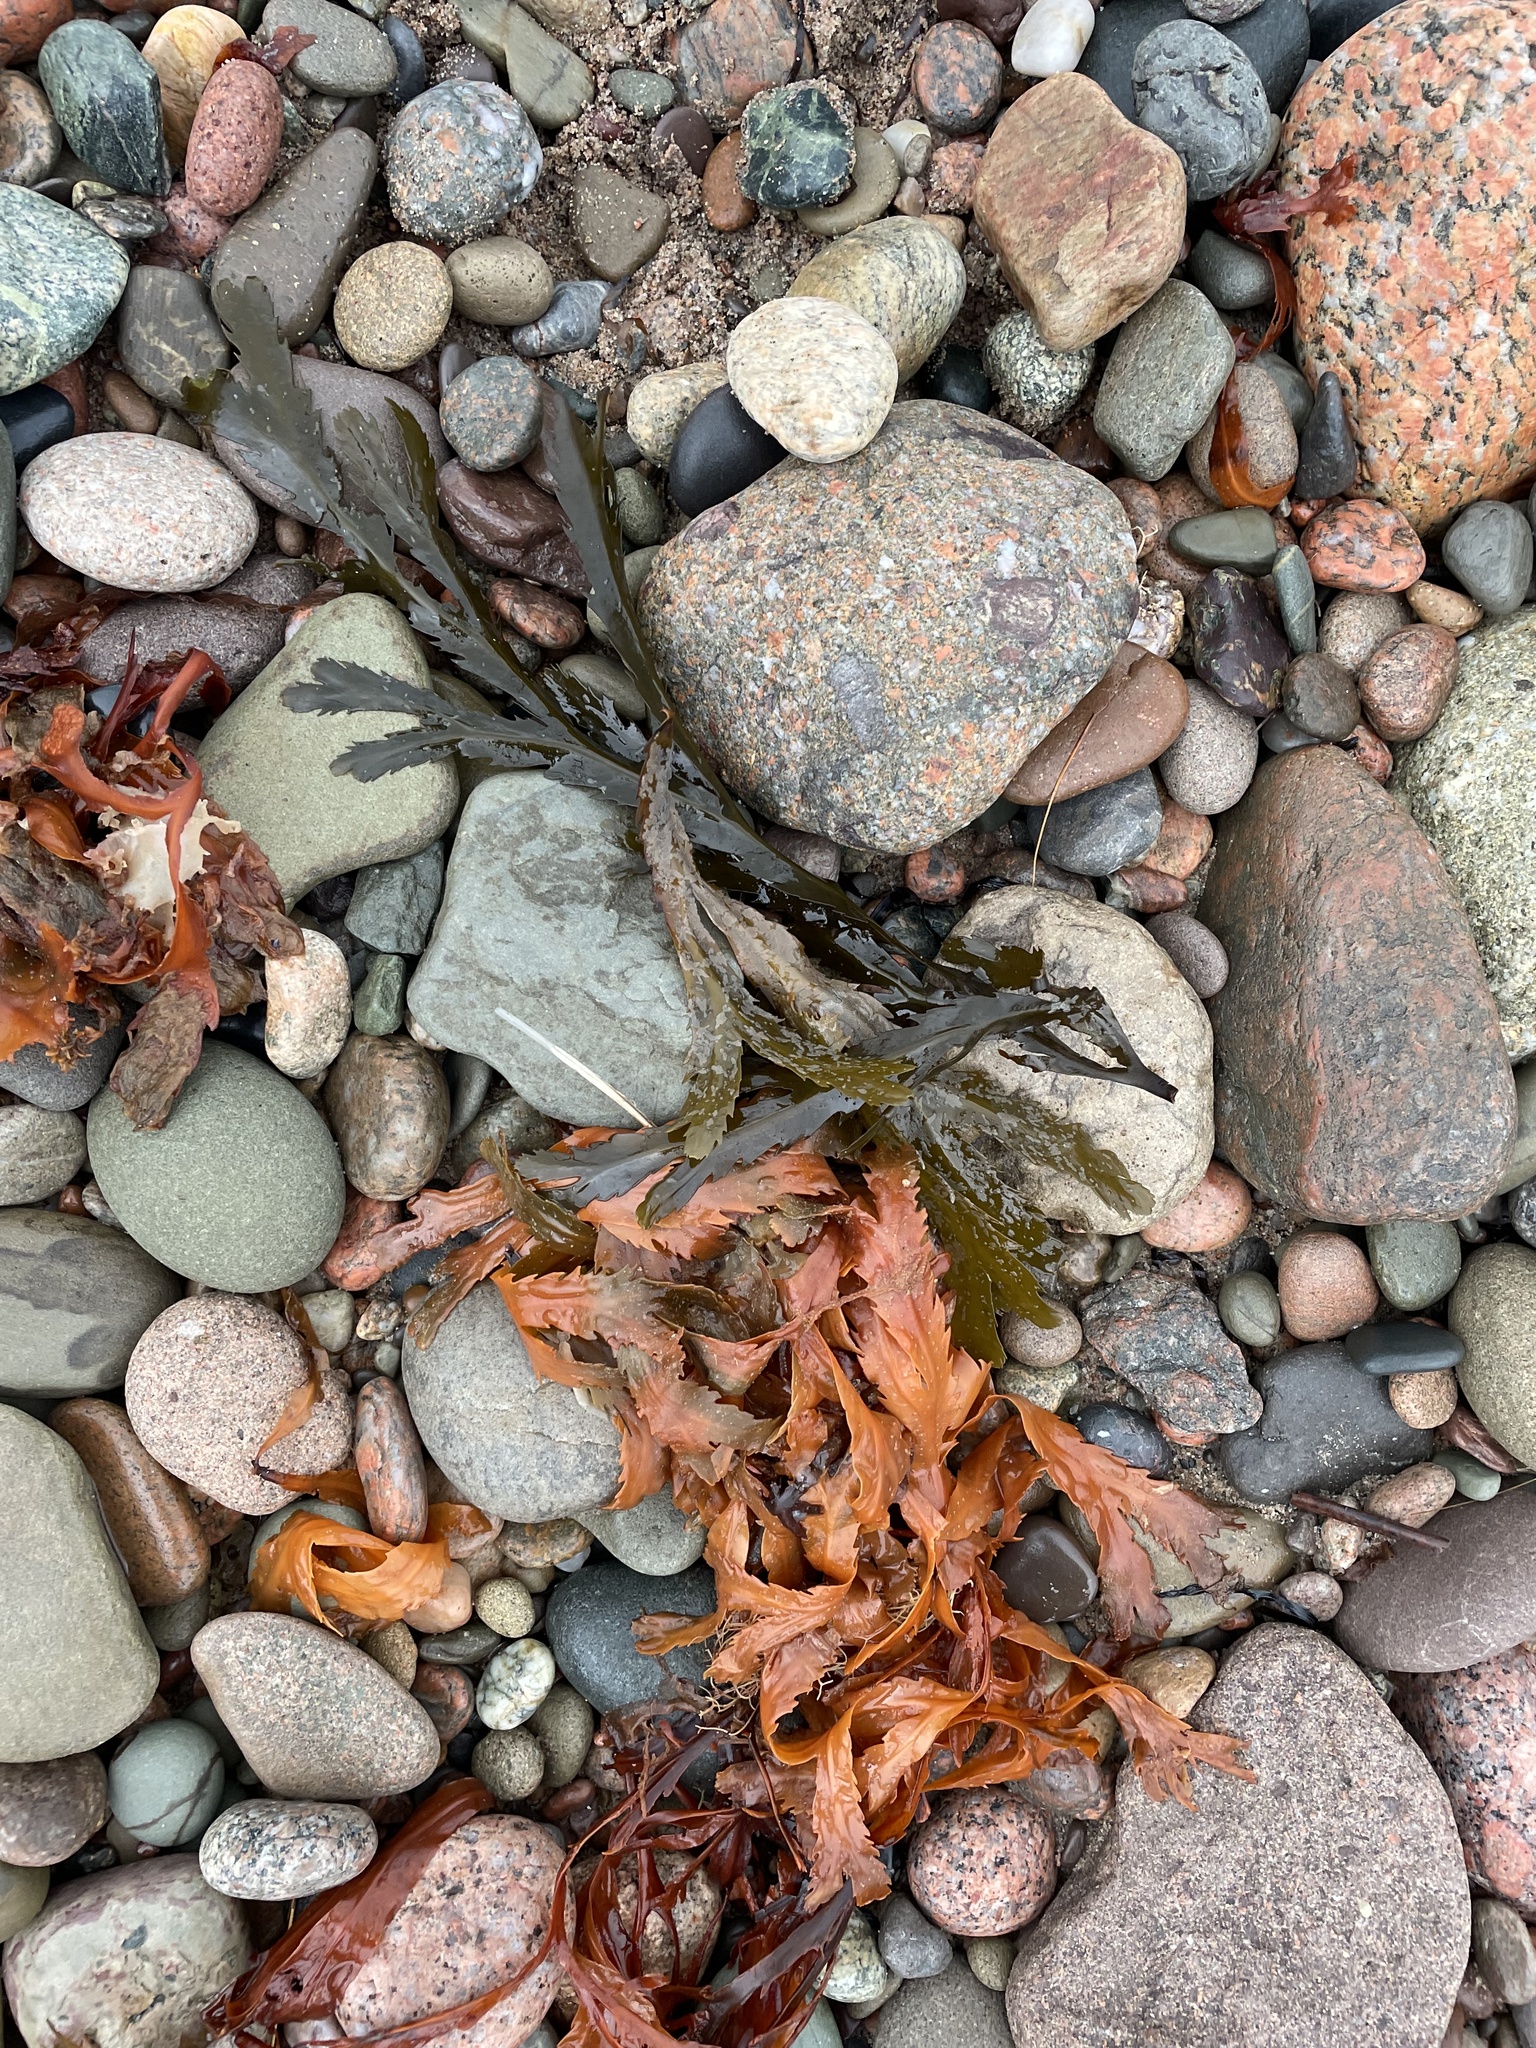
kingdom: Chromista
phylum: Ochrophyta
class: Phaeophyceae
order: Fucales
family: Fucaceae
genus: Fucus
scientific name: Fucus serratus
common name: Toothed wrack
